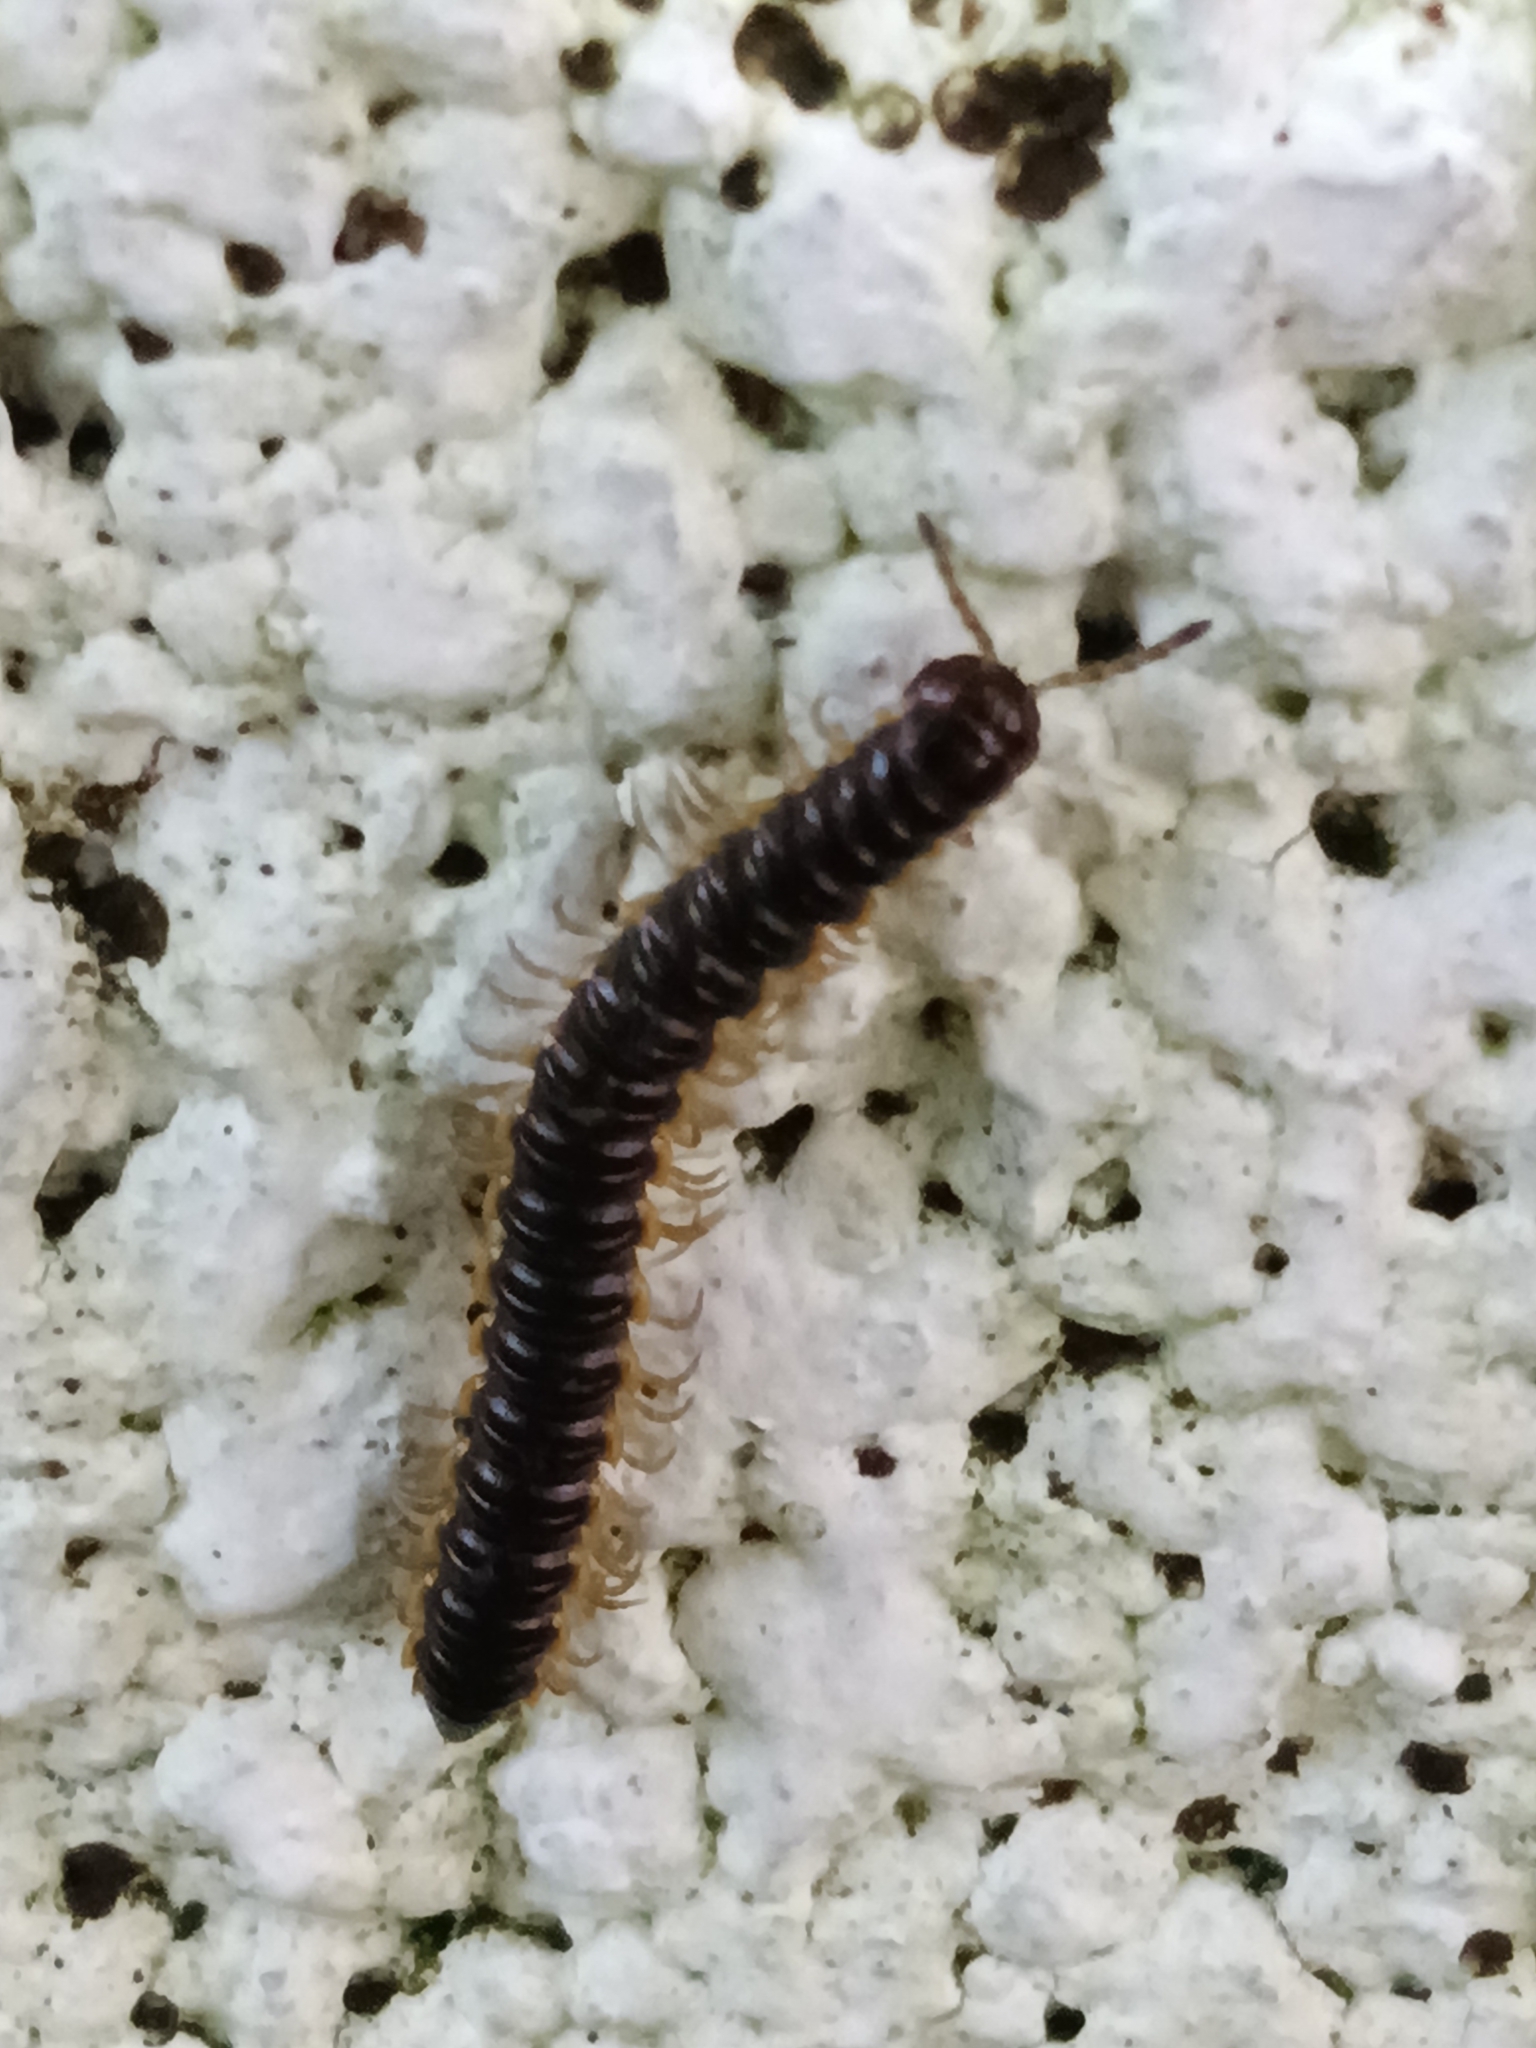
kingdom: Animalia
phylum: Arthropoda
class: Diplopoda
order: Polydesmida
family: Paradoxosomatidae
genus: Orthomorpha
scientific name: Orthomorpha coarctata
